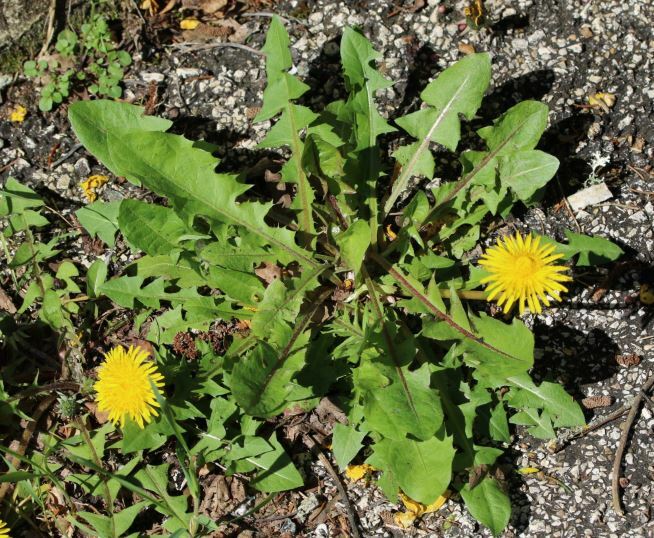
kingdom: Plantae
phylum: Tracheophyta
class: Magnoliopsida
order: Asterales
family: Asteraceae
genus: Taraxacum
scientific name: Taraxacum officinale
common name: Common dandelion
